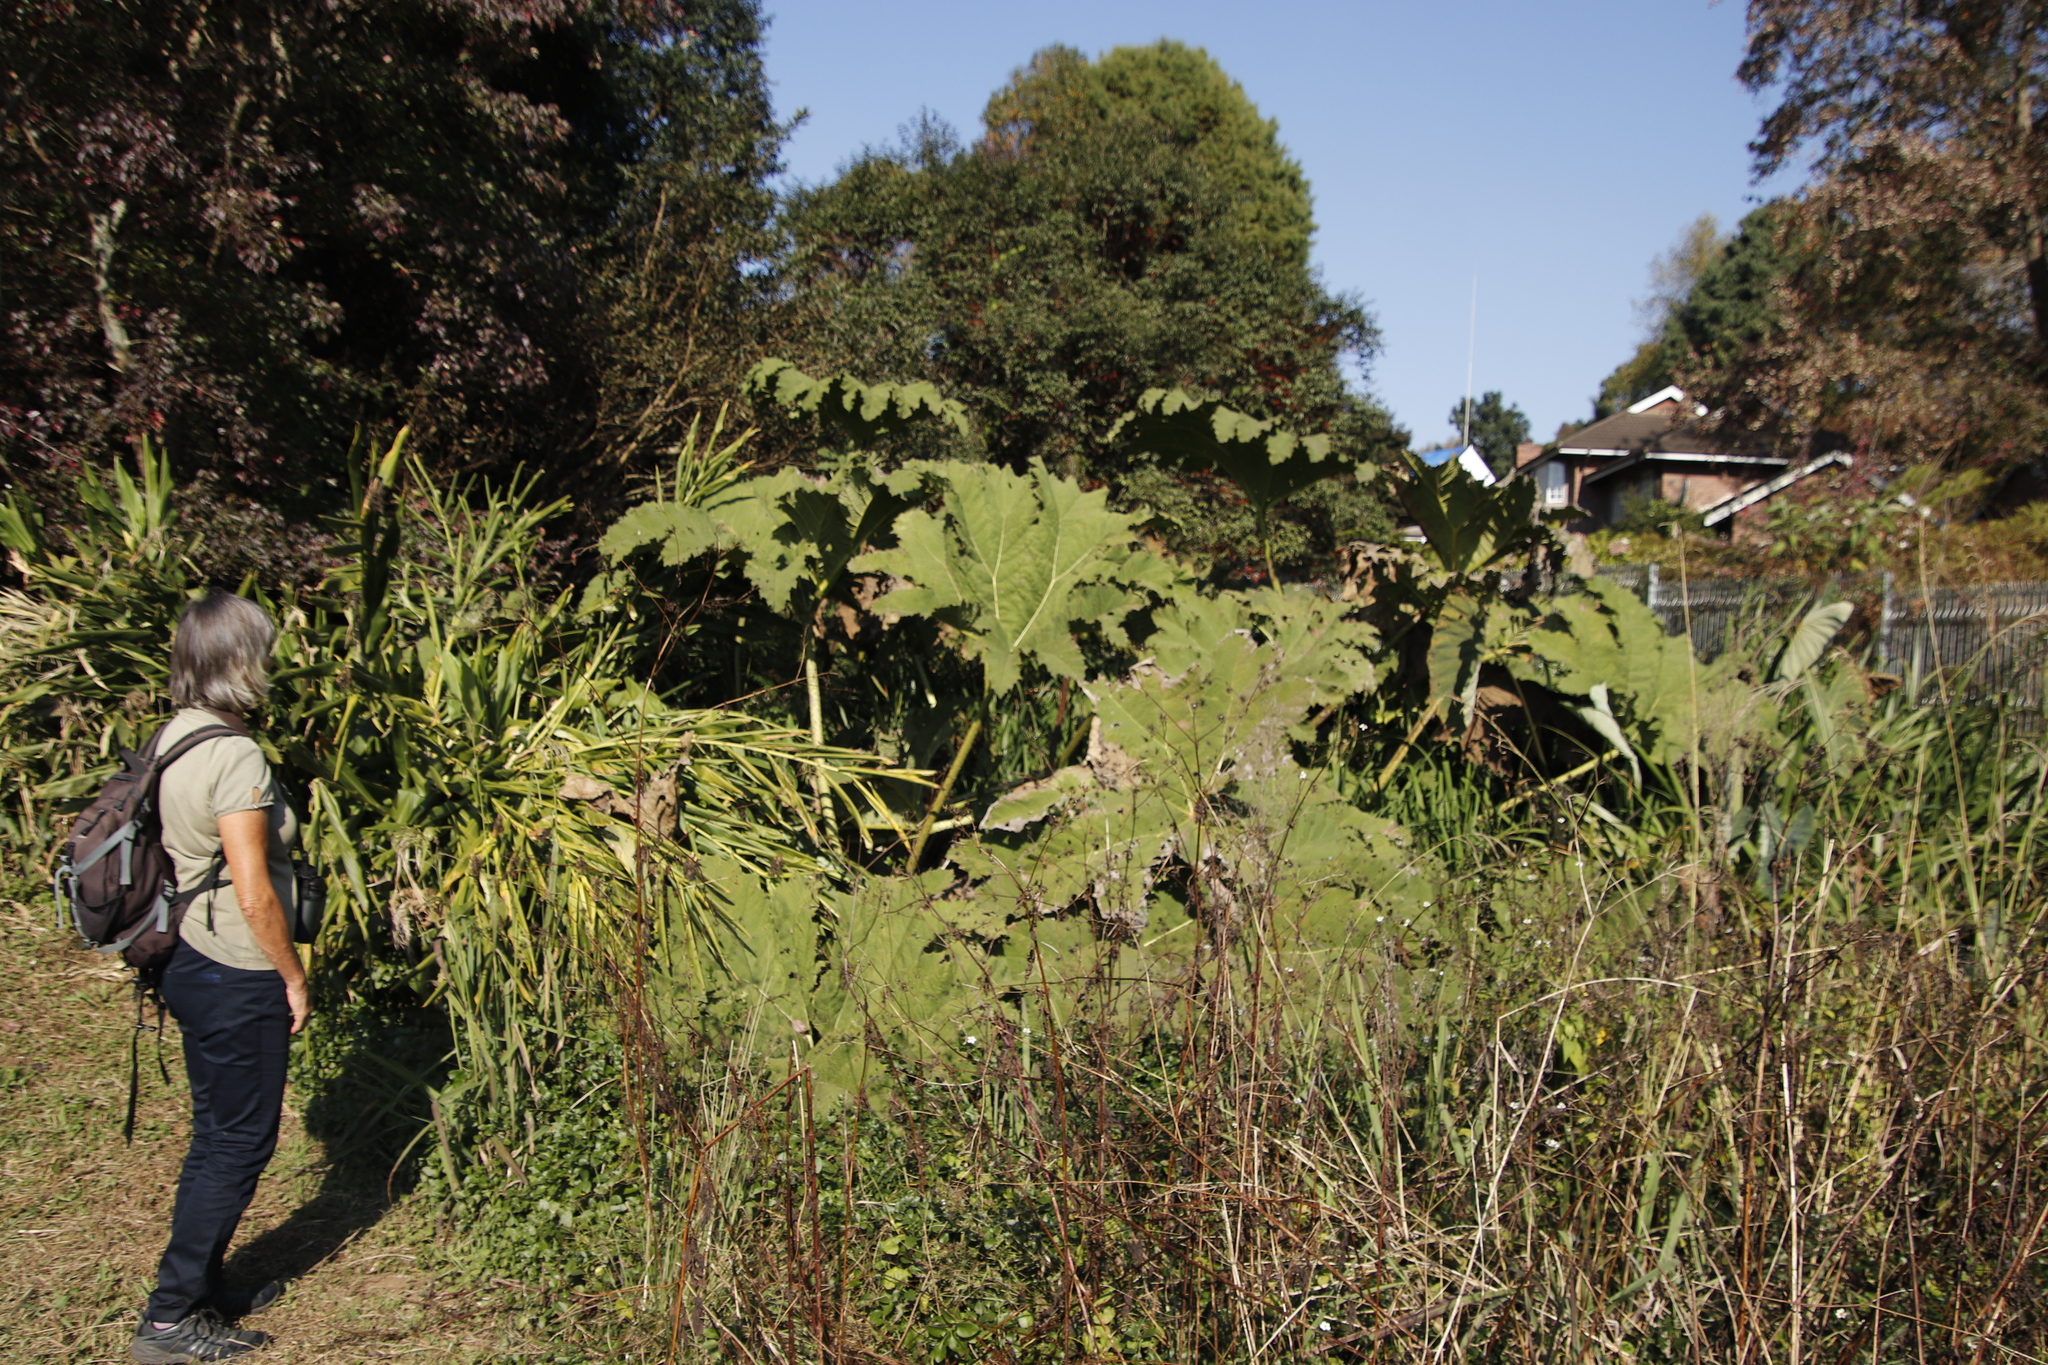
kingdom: Plantae
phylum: Tracheophyta
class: Magnoliopsida
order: Gunnerales
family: Gunneraceae
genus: Gunnera
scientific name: Gunnera manicata
